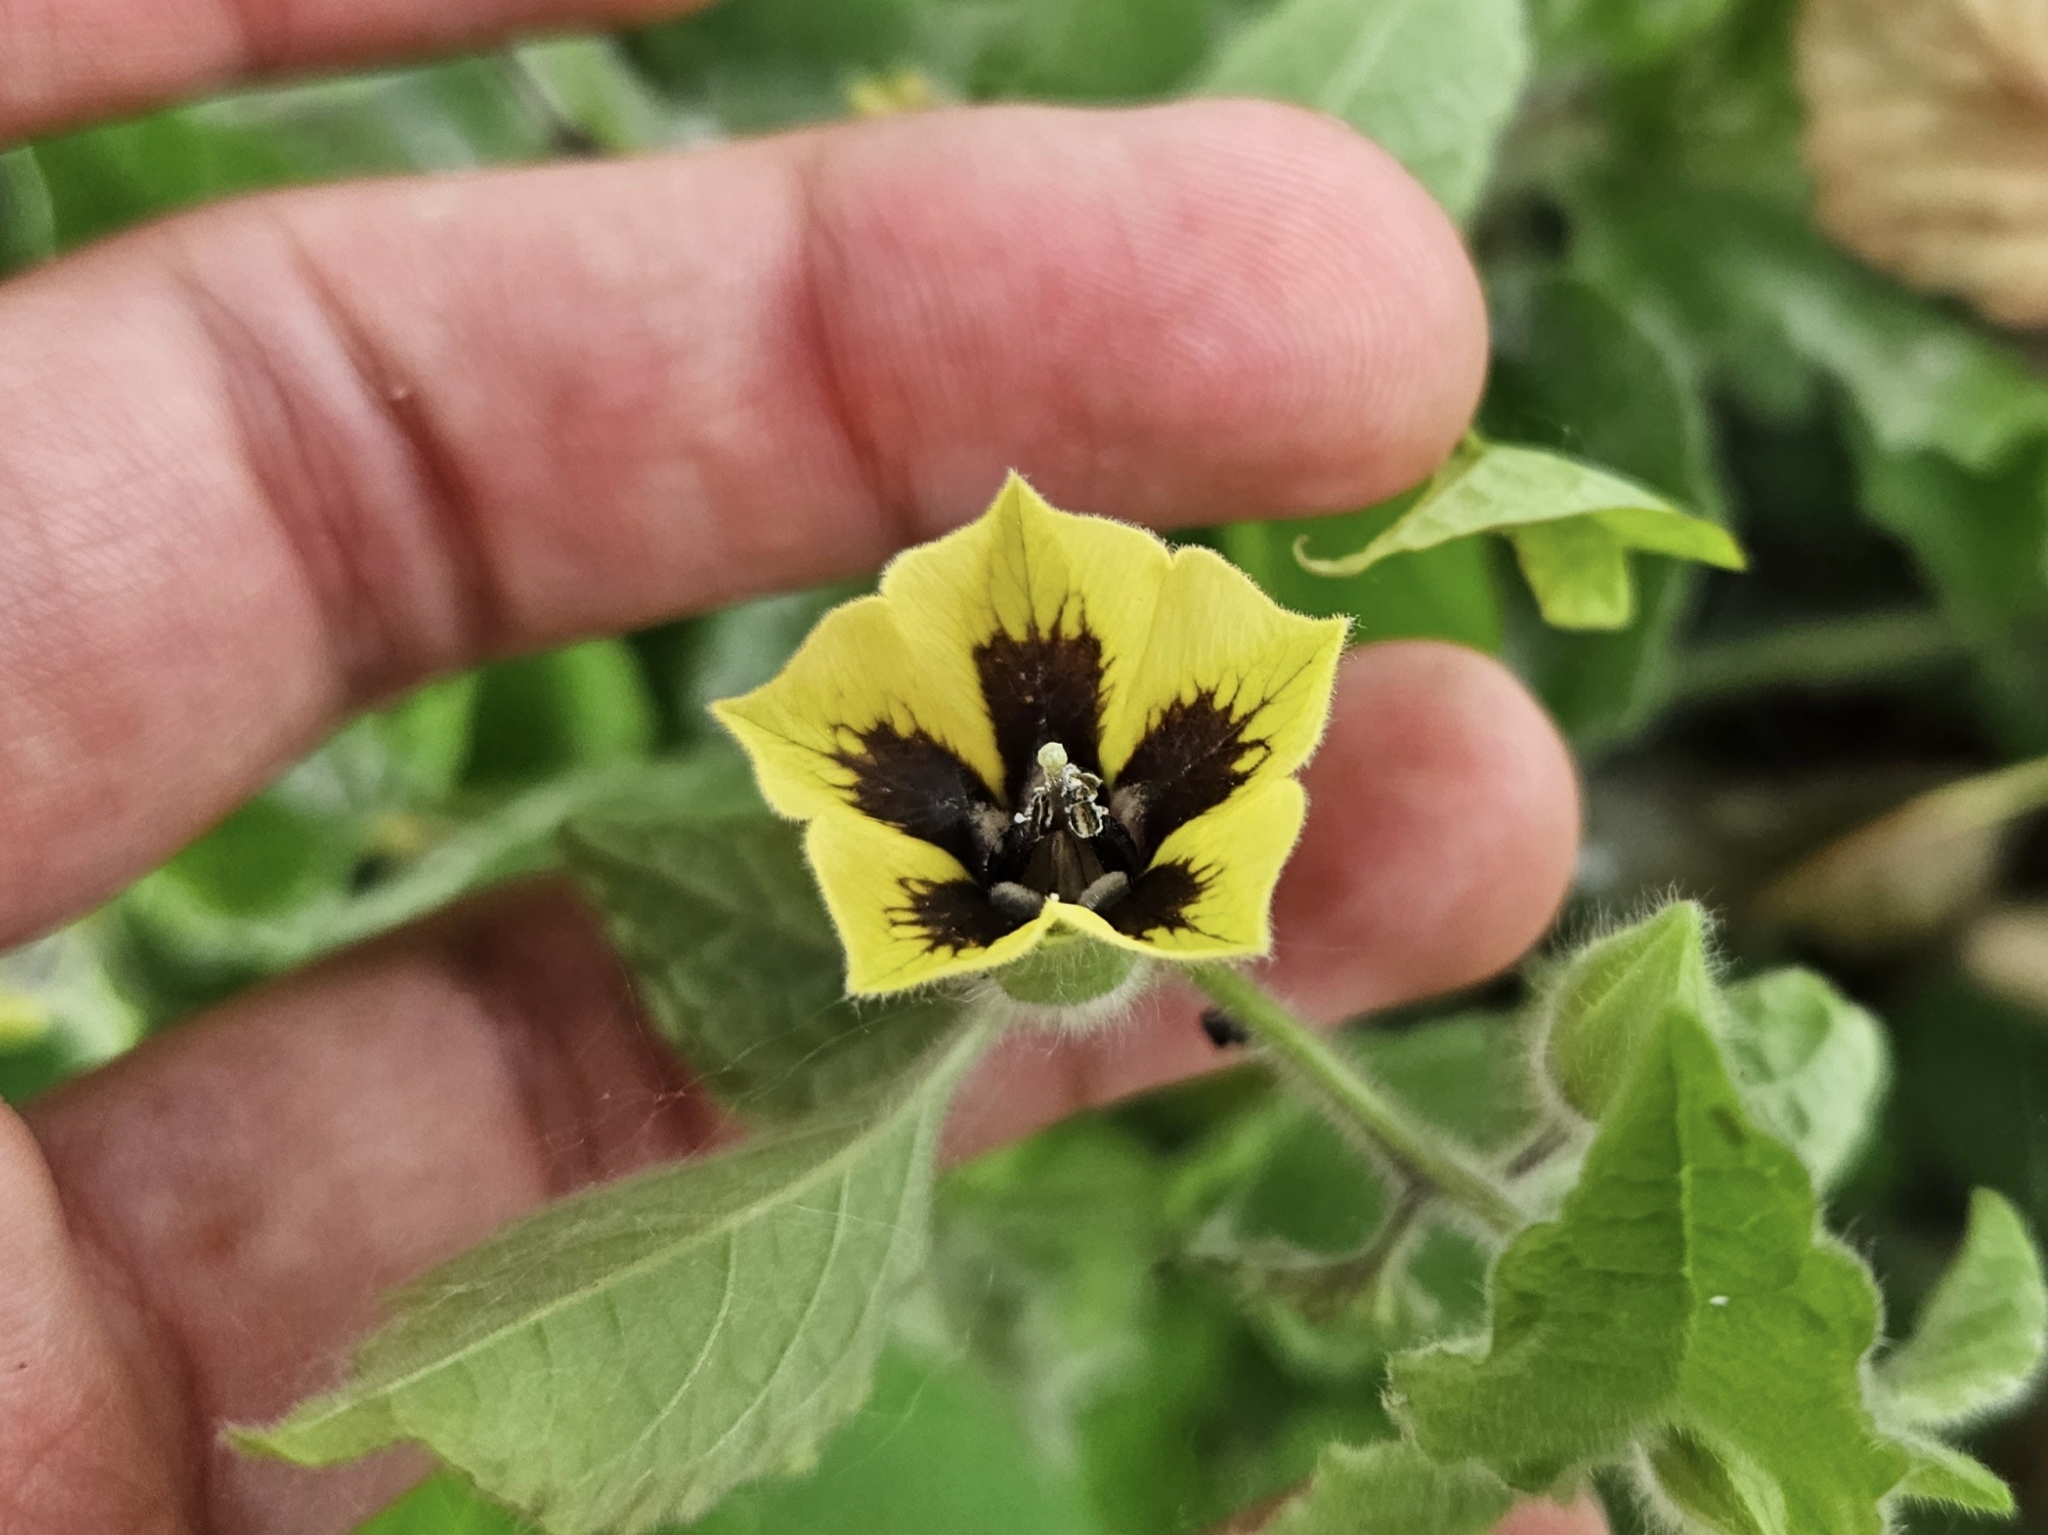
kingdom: Plantae
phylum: Tracheophyta
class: Magnoliopsida
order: Solanales
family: Solanaceae
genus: Physalis
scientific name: Physalis heterophylla
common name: Clammy ground-cherry
